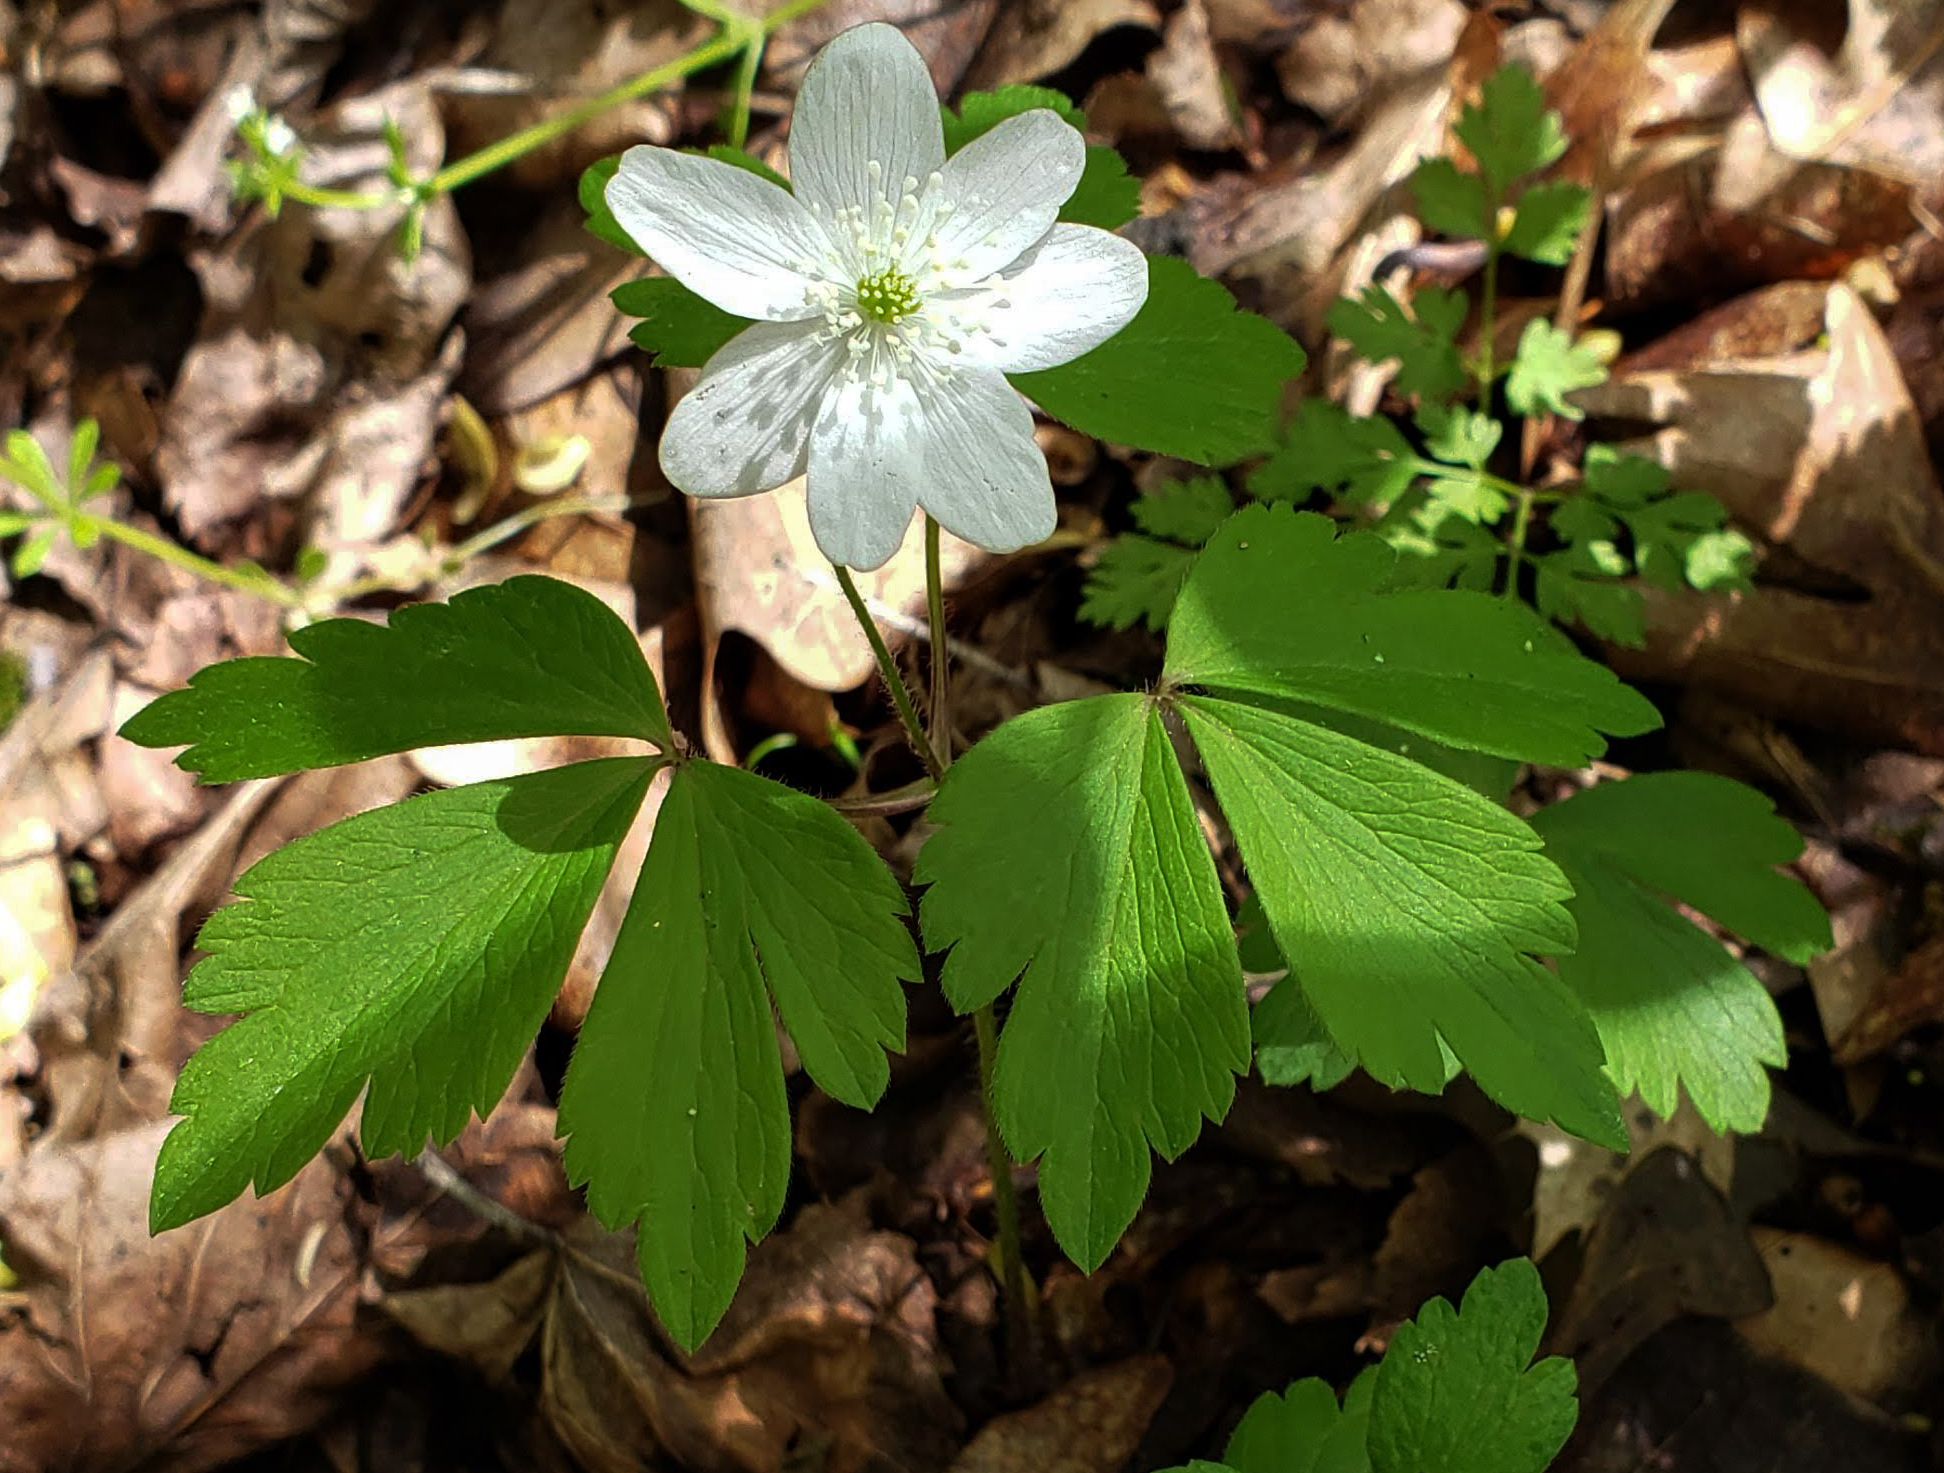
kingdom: Plantae
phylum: Tracheophyta
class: Magnoliopsida
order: Ranunculales
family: Ranunculaceae
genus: Anemone
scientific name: Anemone quinquefolia
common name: Wood anemone
